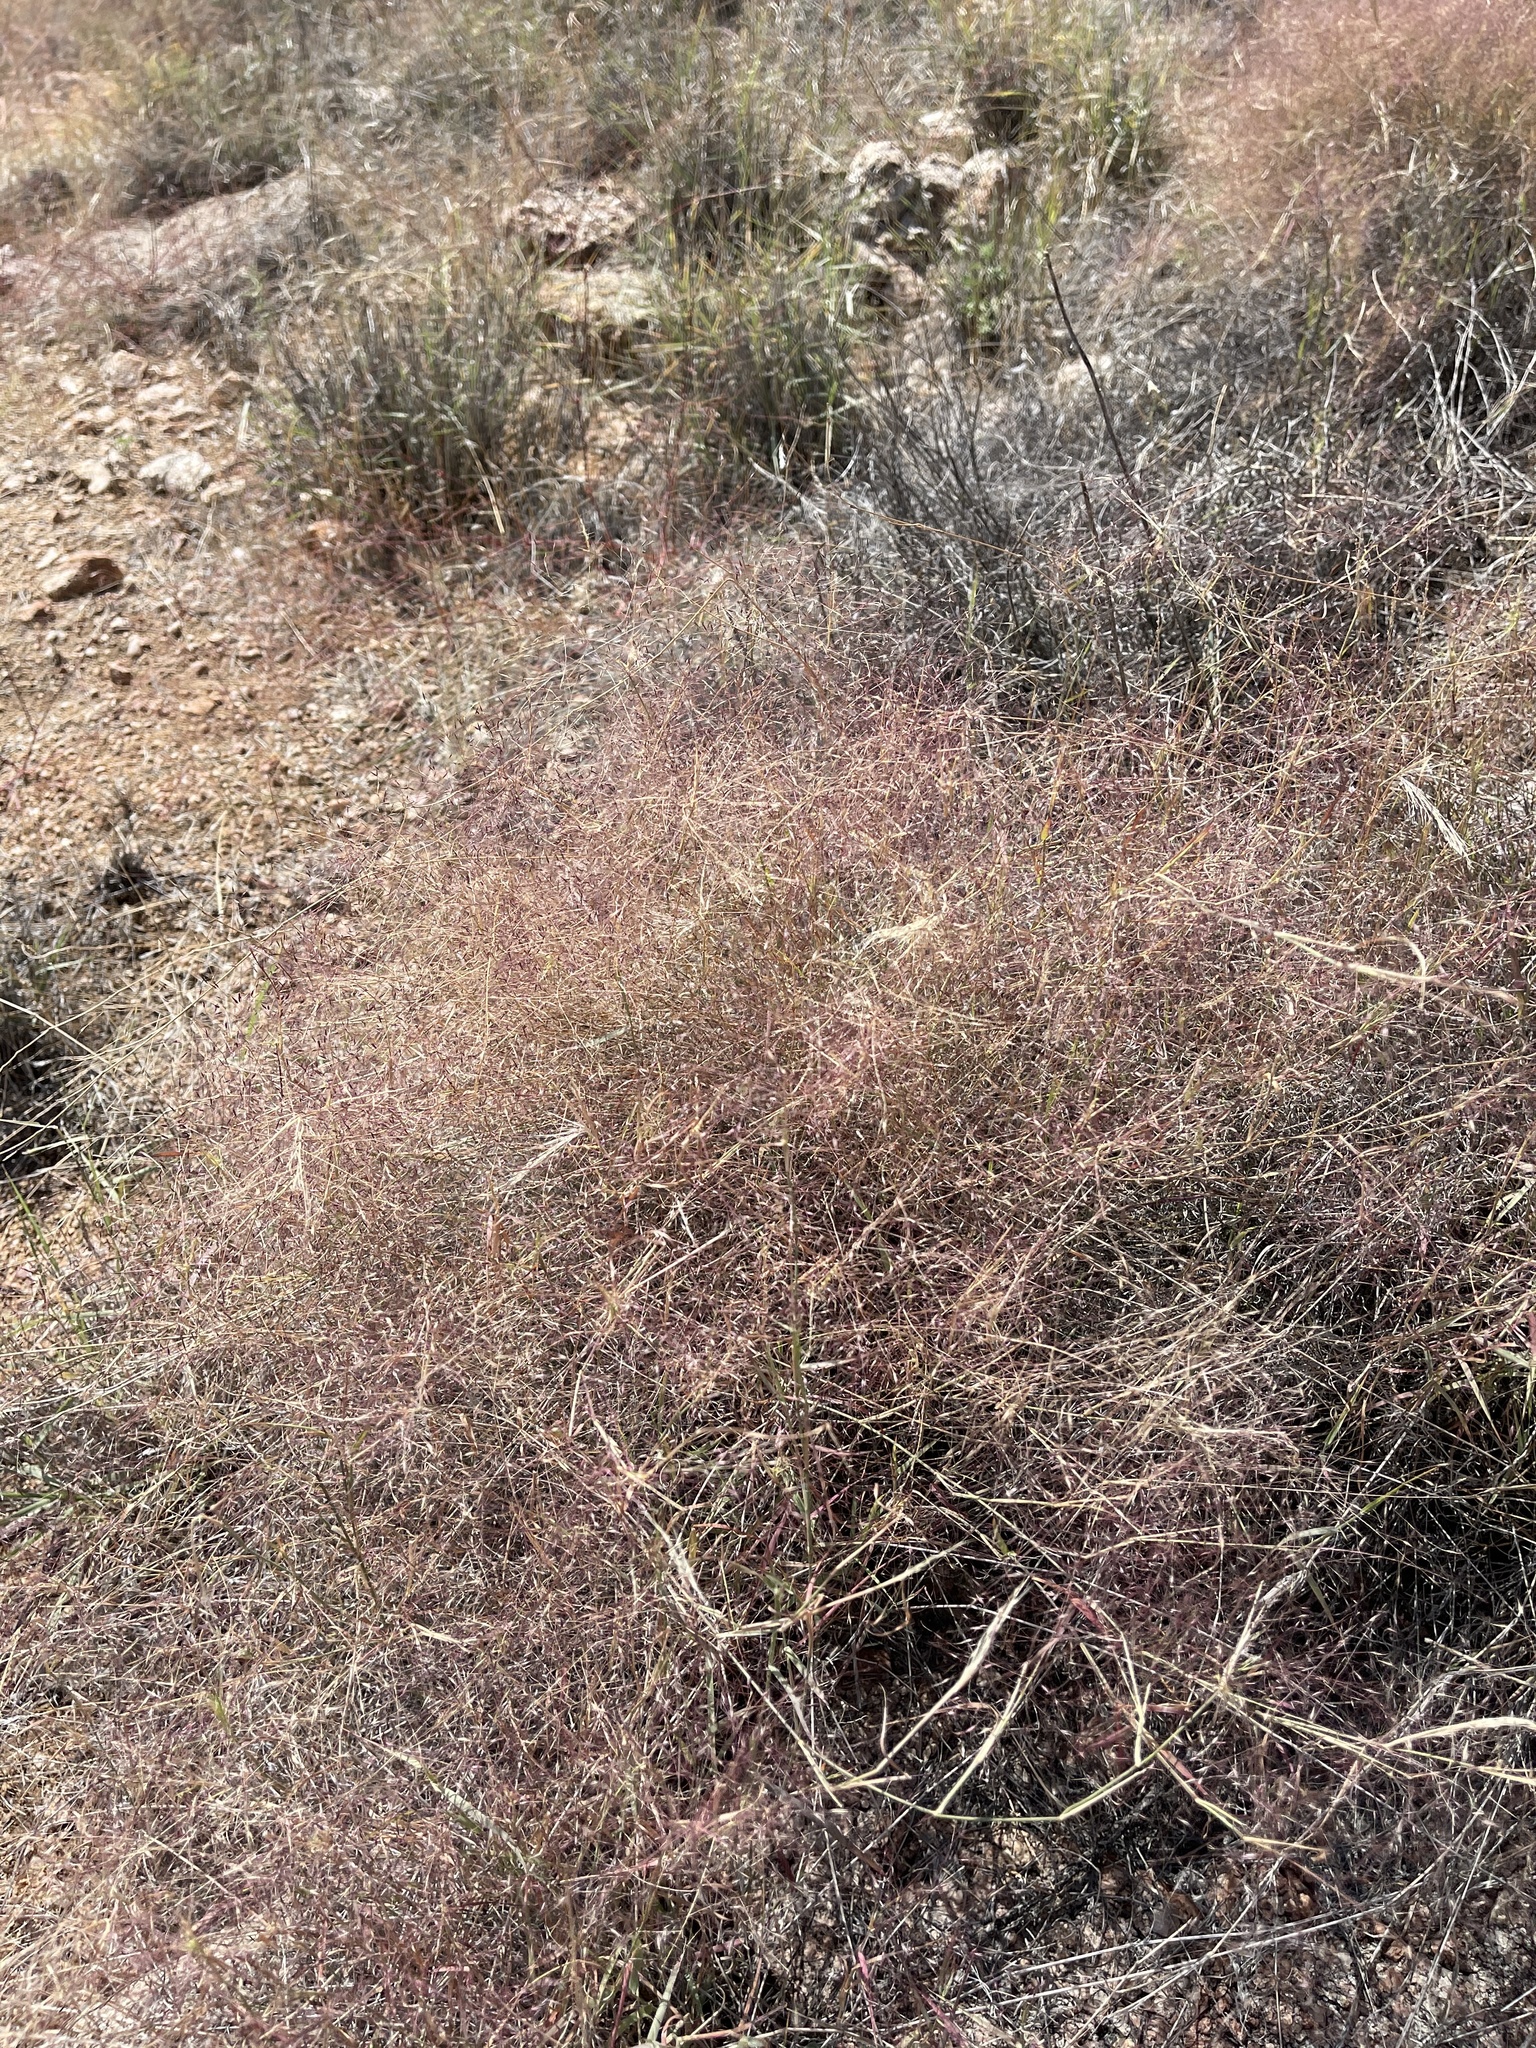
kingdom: Plantae
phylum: Tracheophyta
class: Liliopsida
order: Poales
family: Poaceae
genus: Panicum
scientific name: Panicum capillare
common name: Witch-grass
